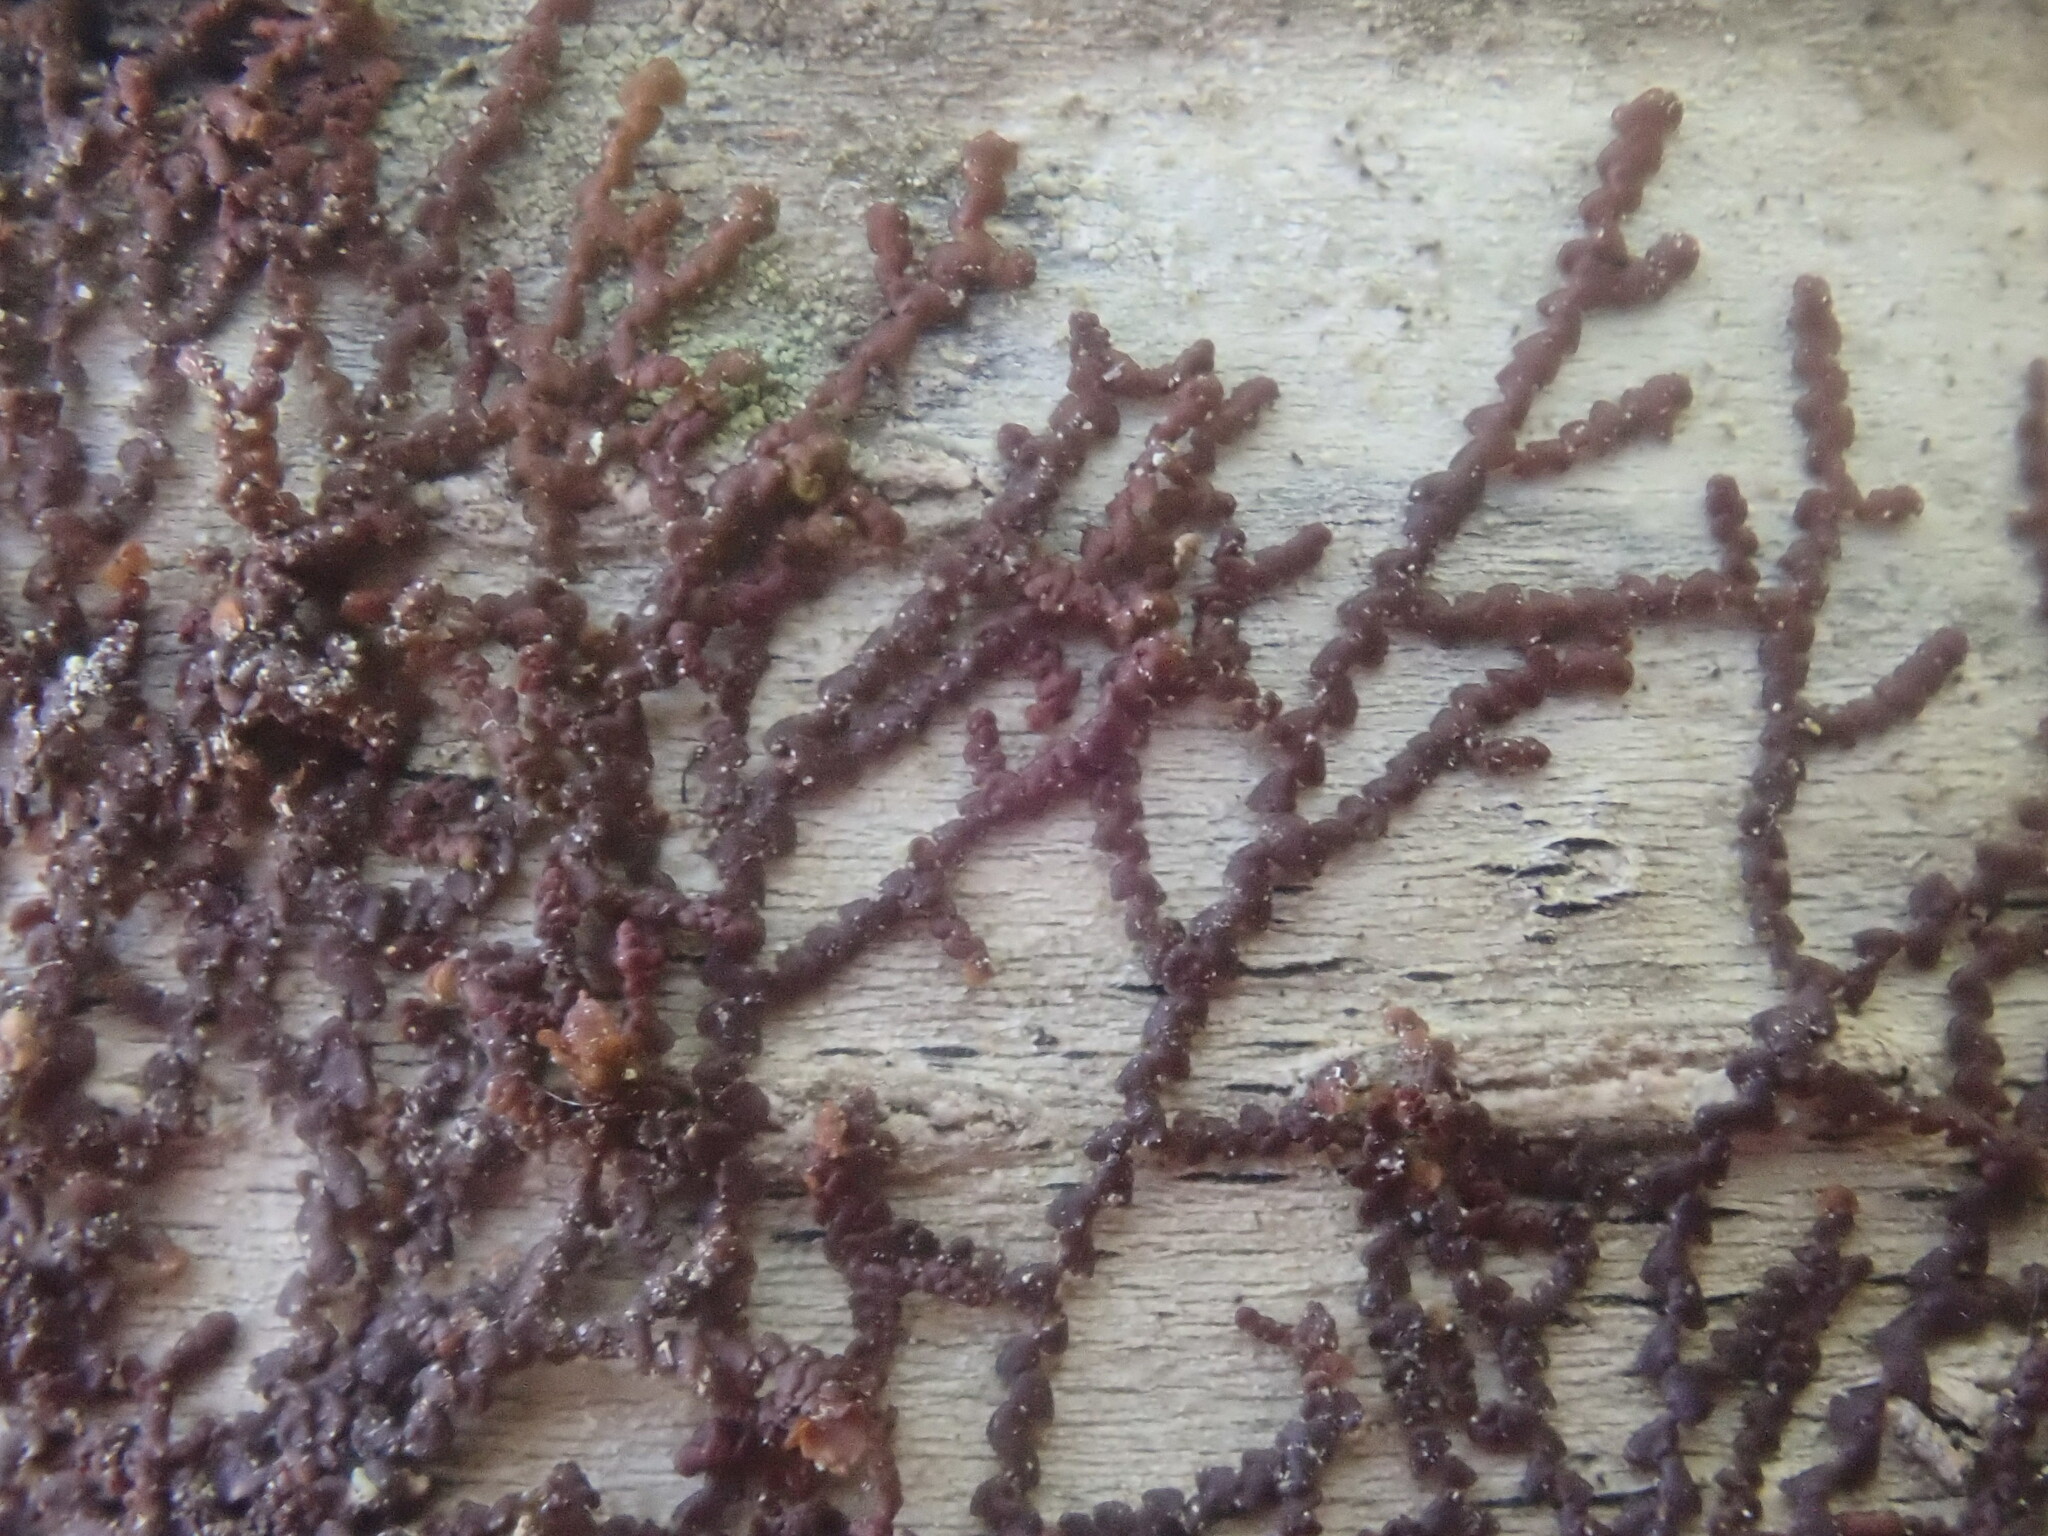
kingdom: Plantae
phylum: Marchantiophyta
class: Jungermanniopsida
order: Porellales
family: Frullaniaceae
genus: Frullania
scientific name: Frullania
